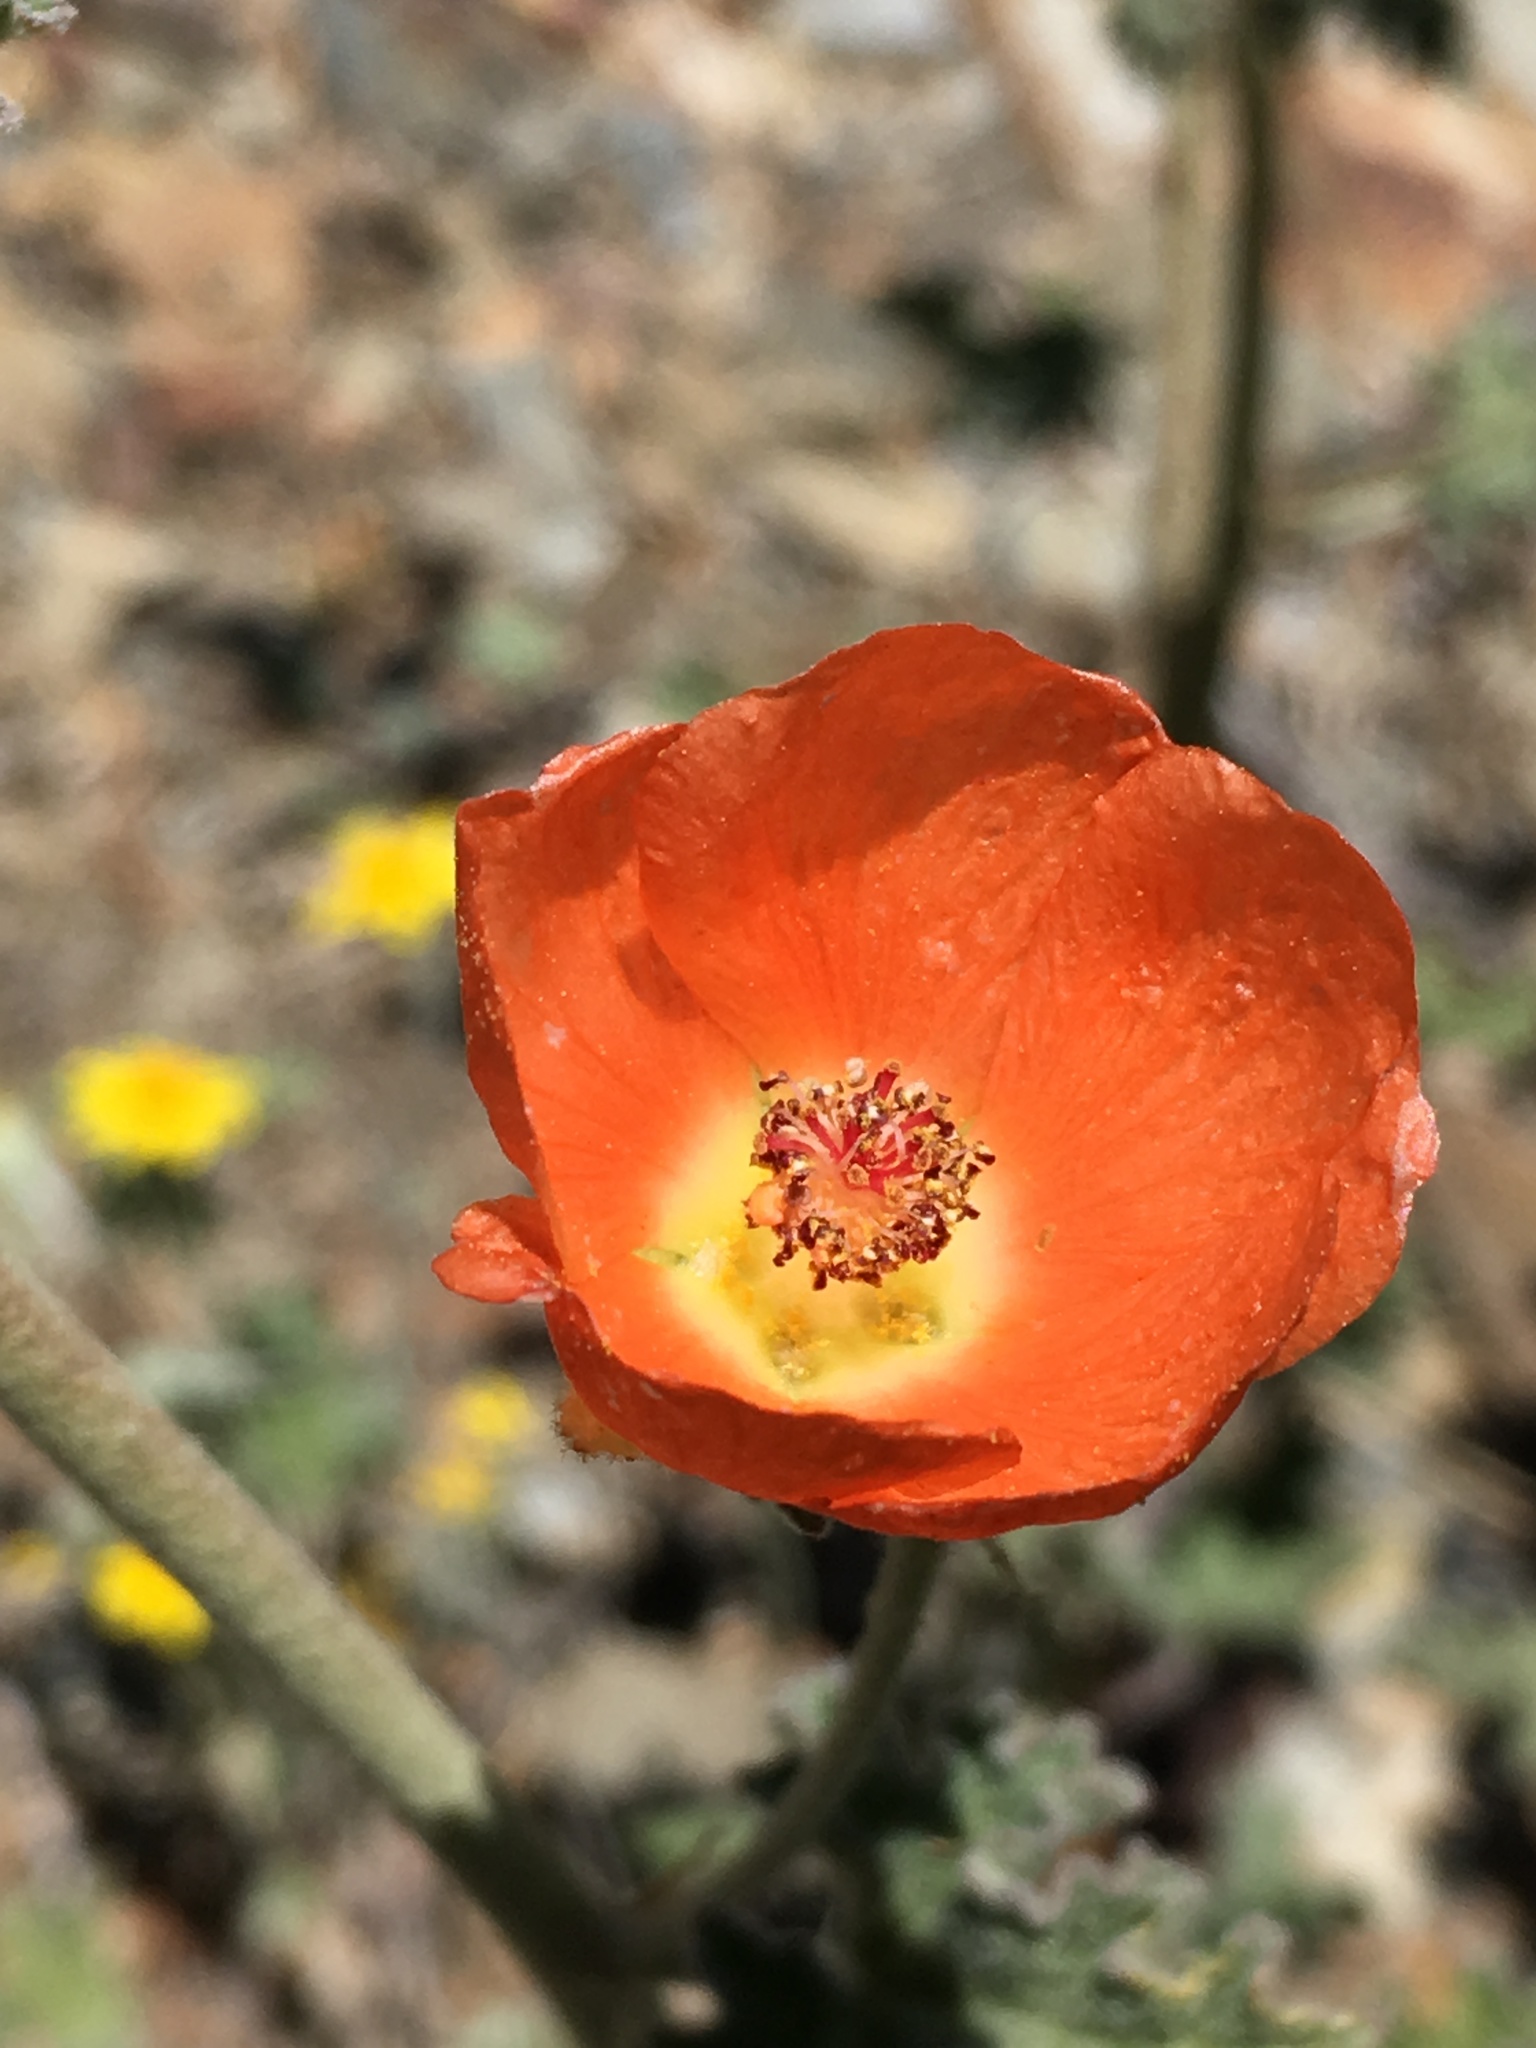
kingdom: Plantae
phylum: Tracheophyta
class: Magnoliopsida
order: Malvales
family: Malvaceae
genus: Sphaeralcea
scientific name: Sphaeralcea ambigua
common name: Apricot globe-mallow
